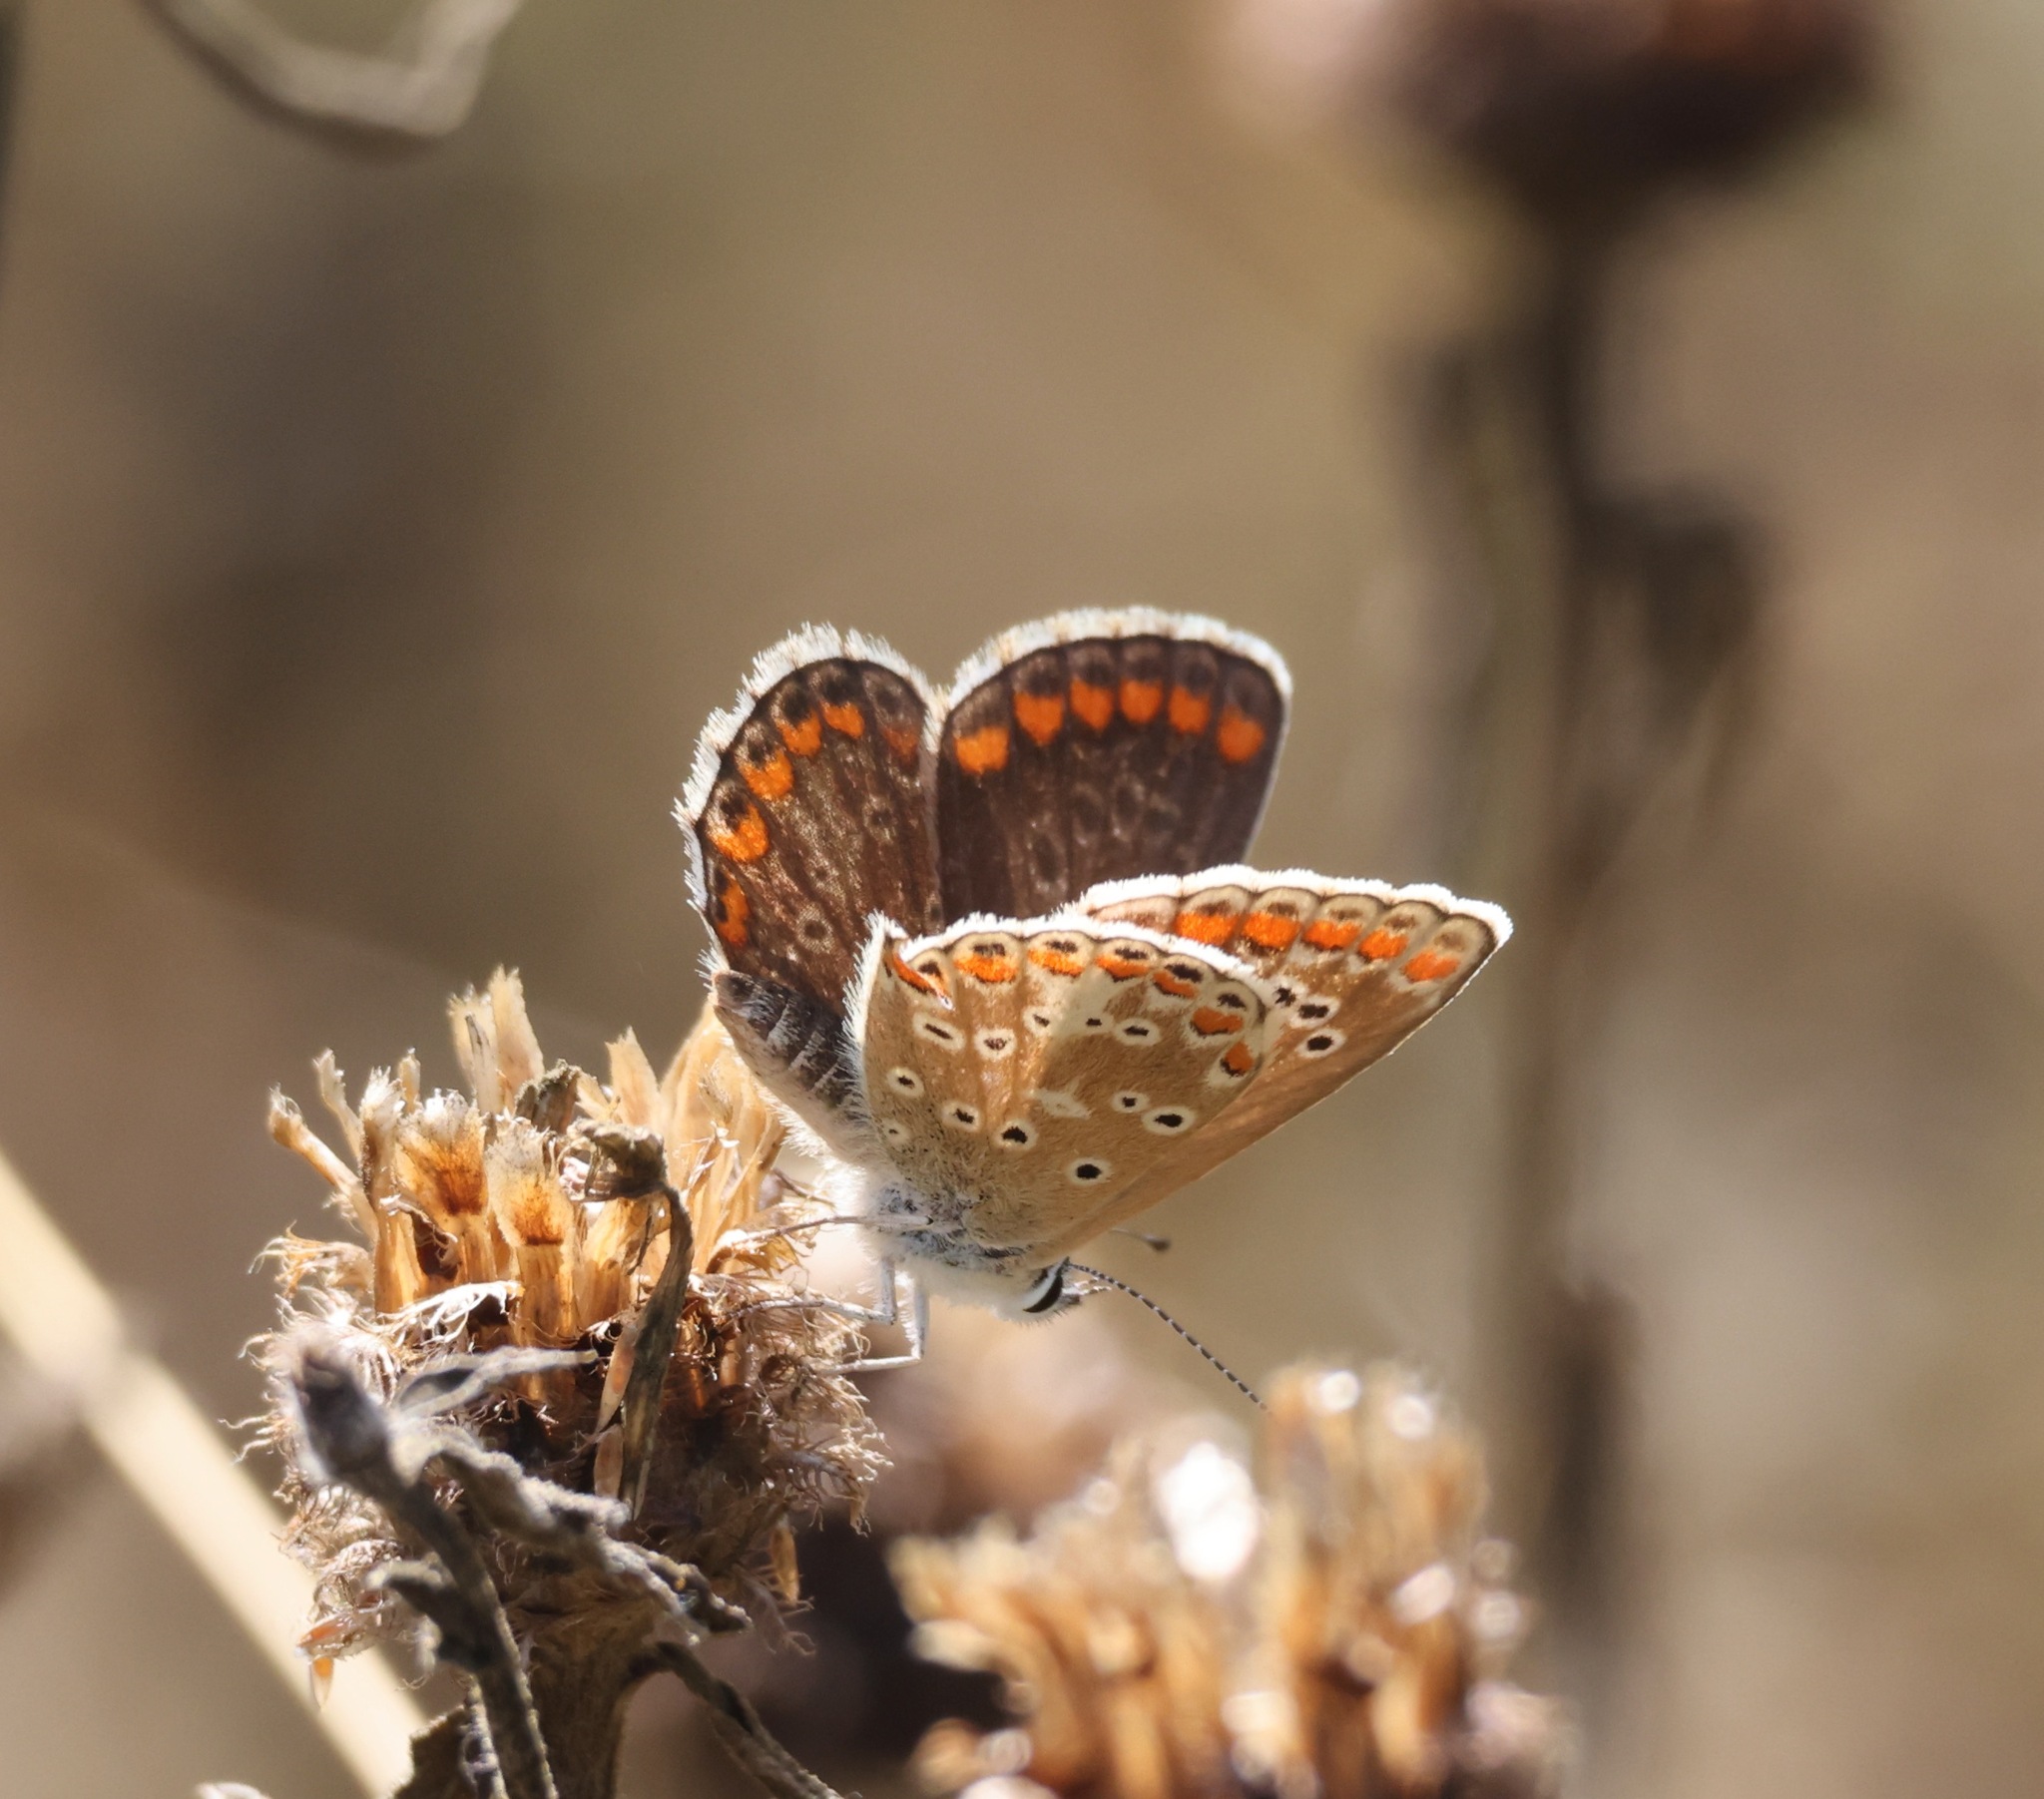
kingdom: Animalia
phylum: Arthropoda
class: Insecta
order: Lepidoptera
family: Lycaenidae
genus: Aricia
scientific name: Aricia agestis
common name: Brown argus
